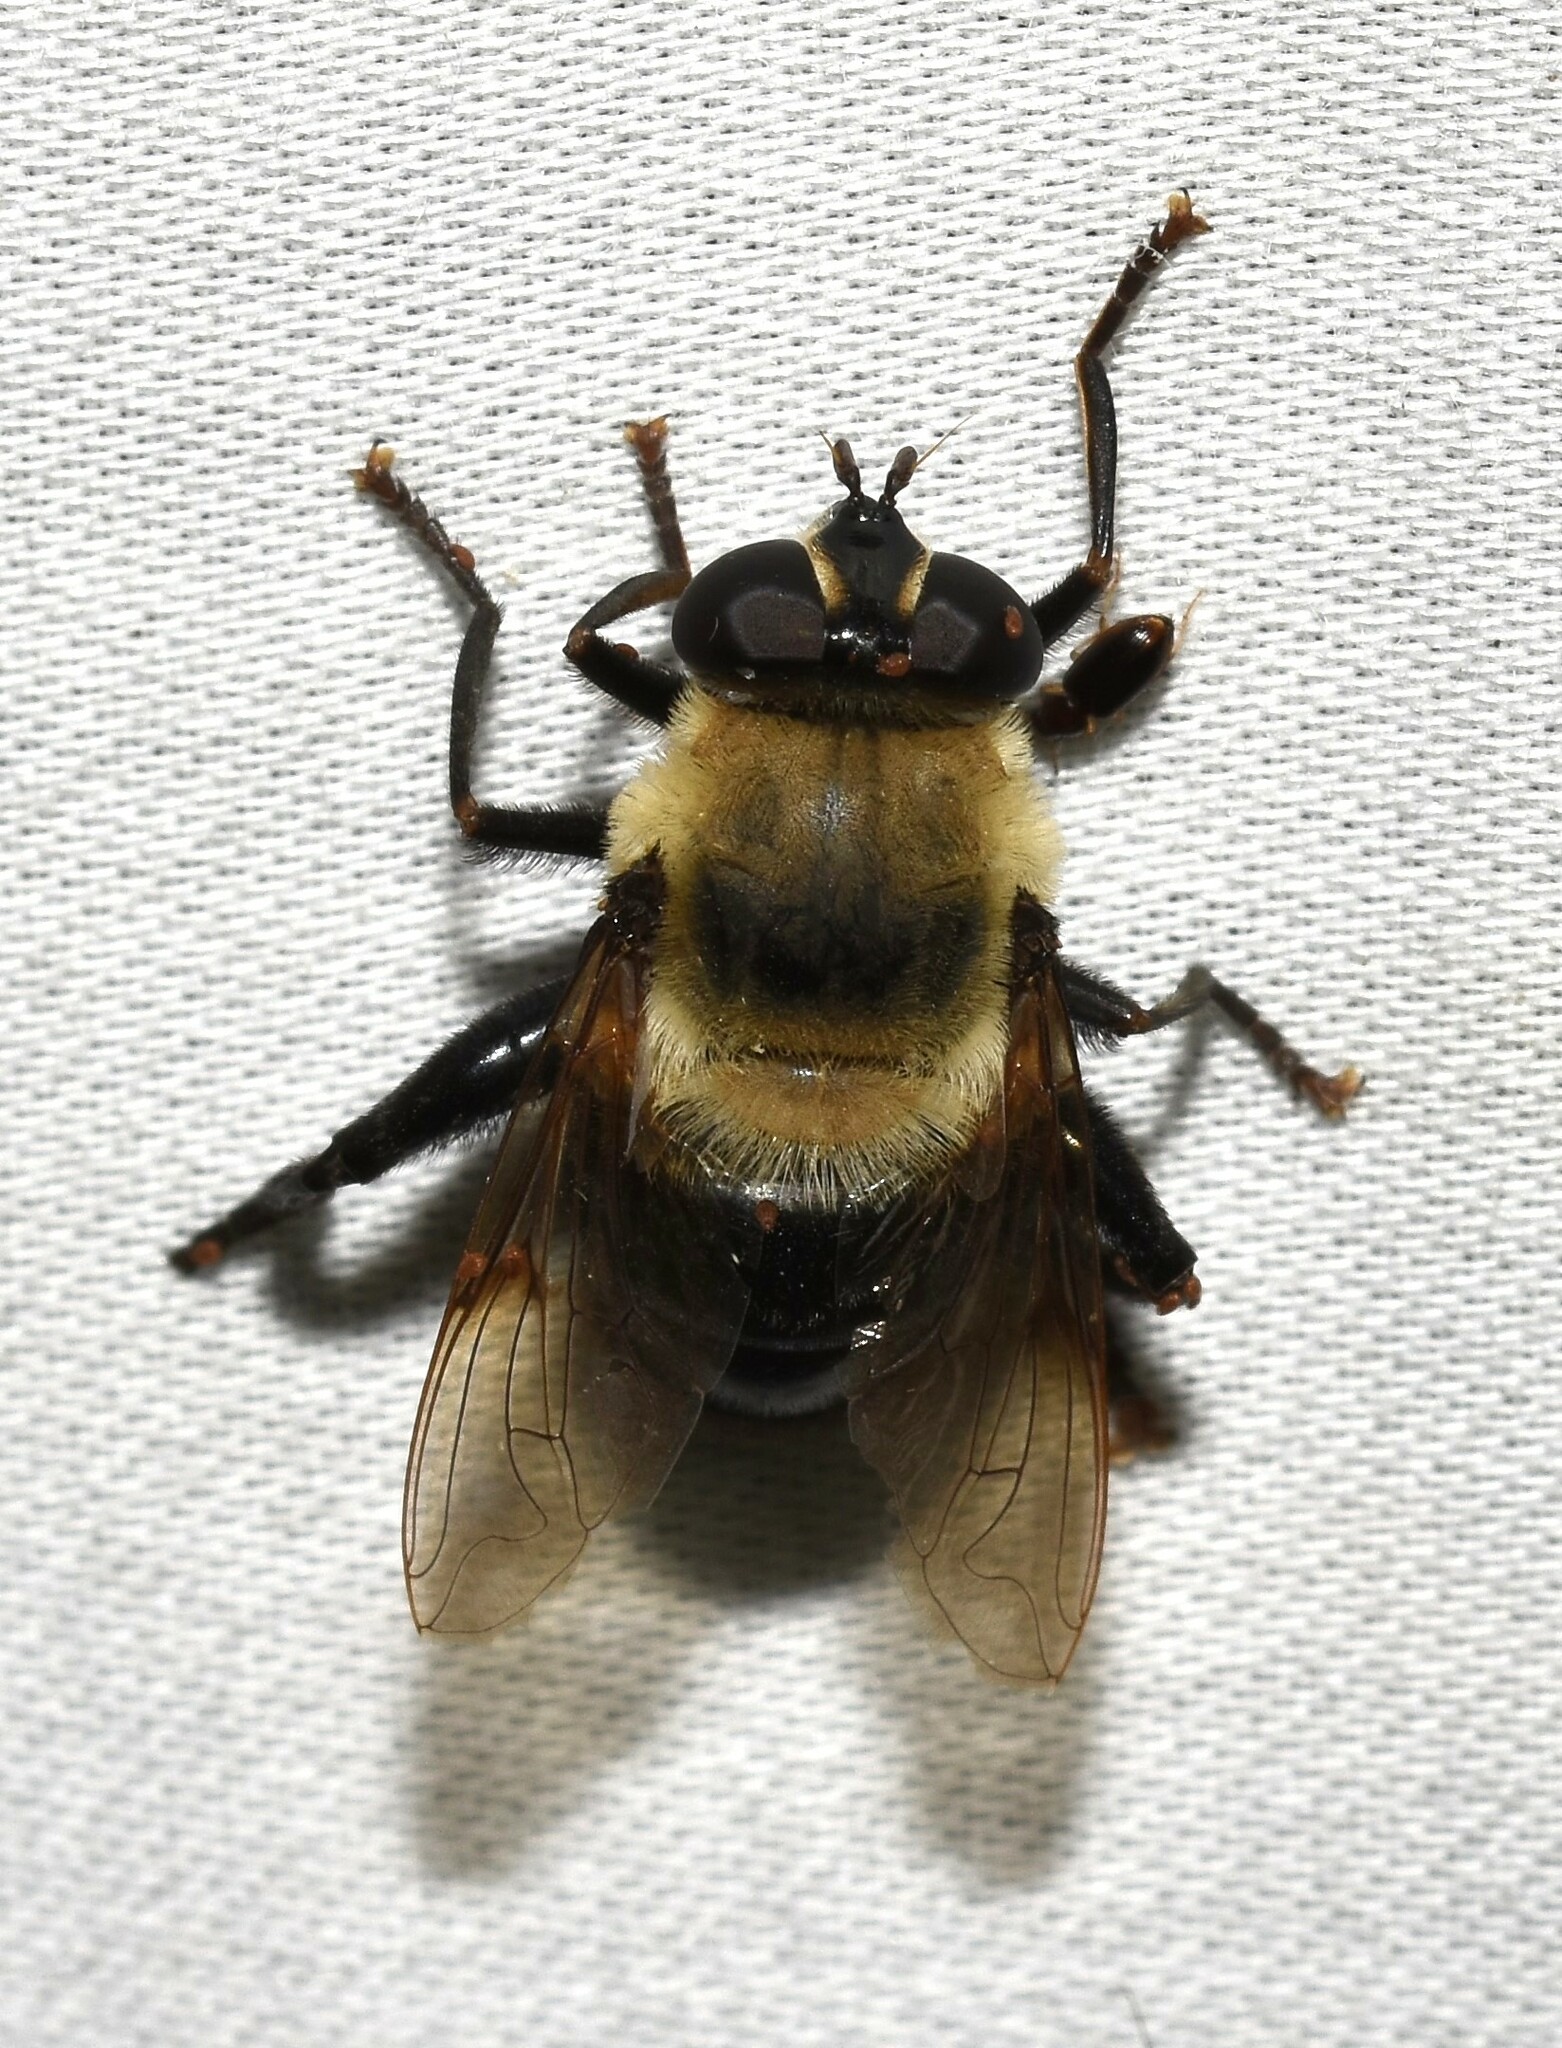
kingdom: Animalia
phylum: Arthropoda
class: Insecta
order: Diptera
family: Syrphidae
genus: Imatisma
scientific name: Imatisma bautias
